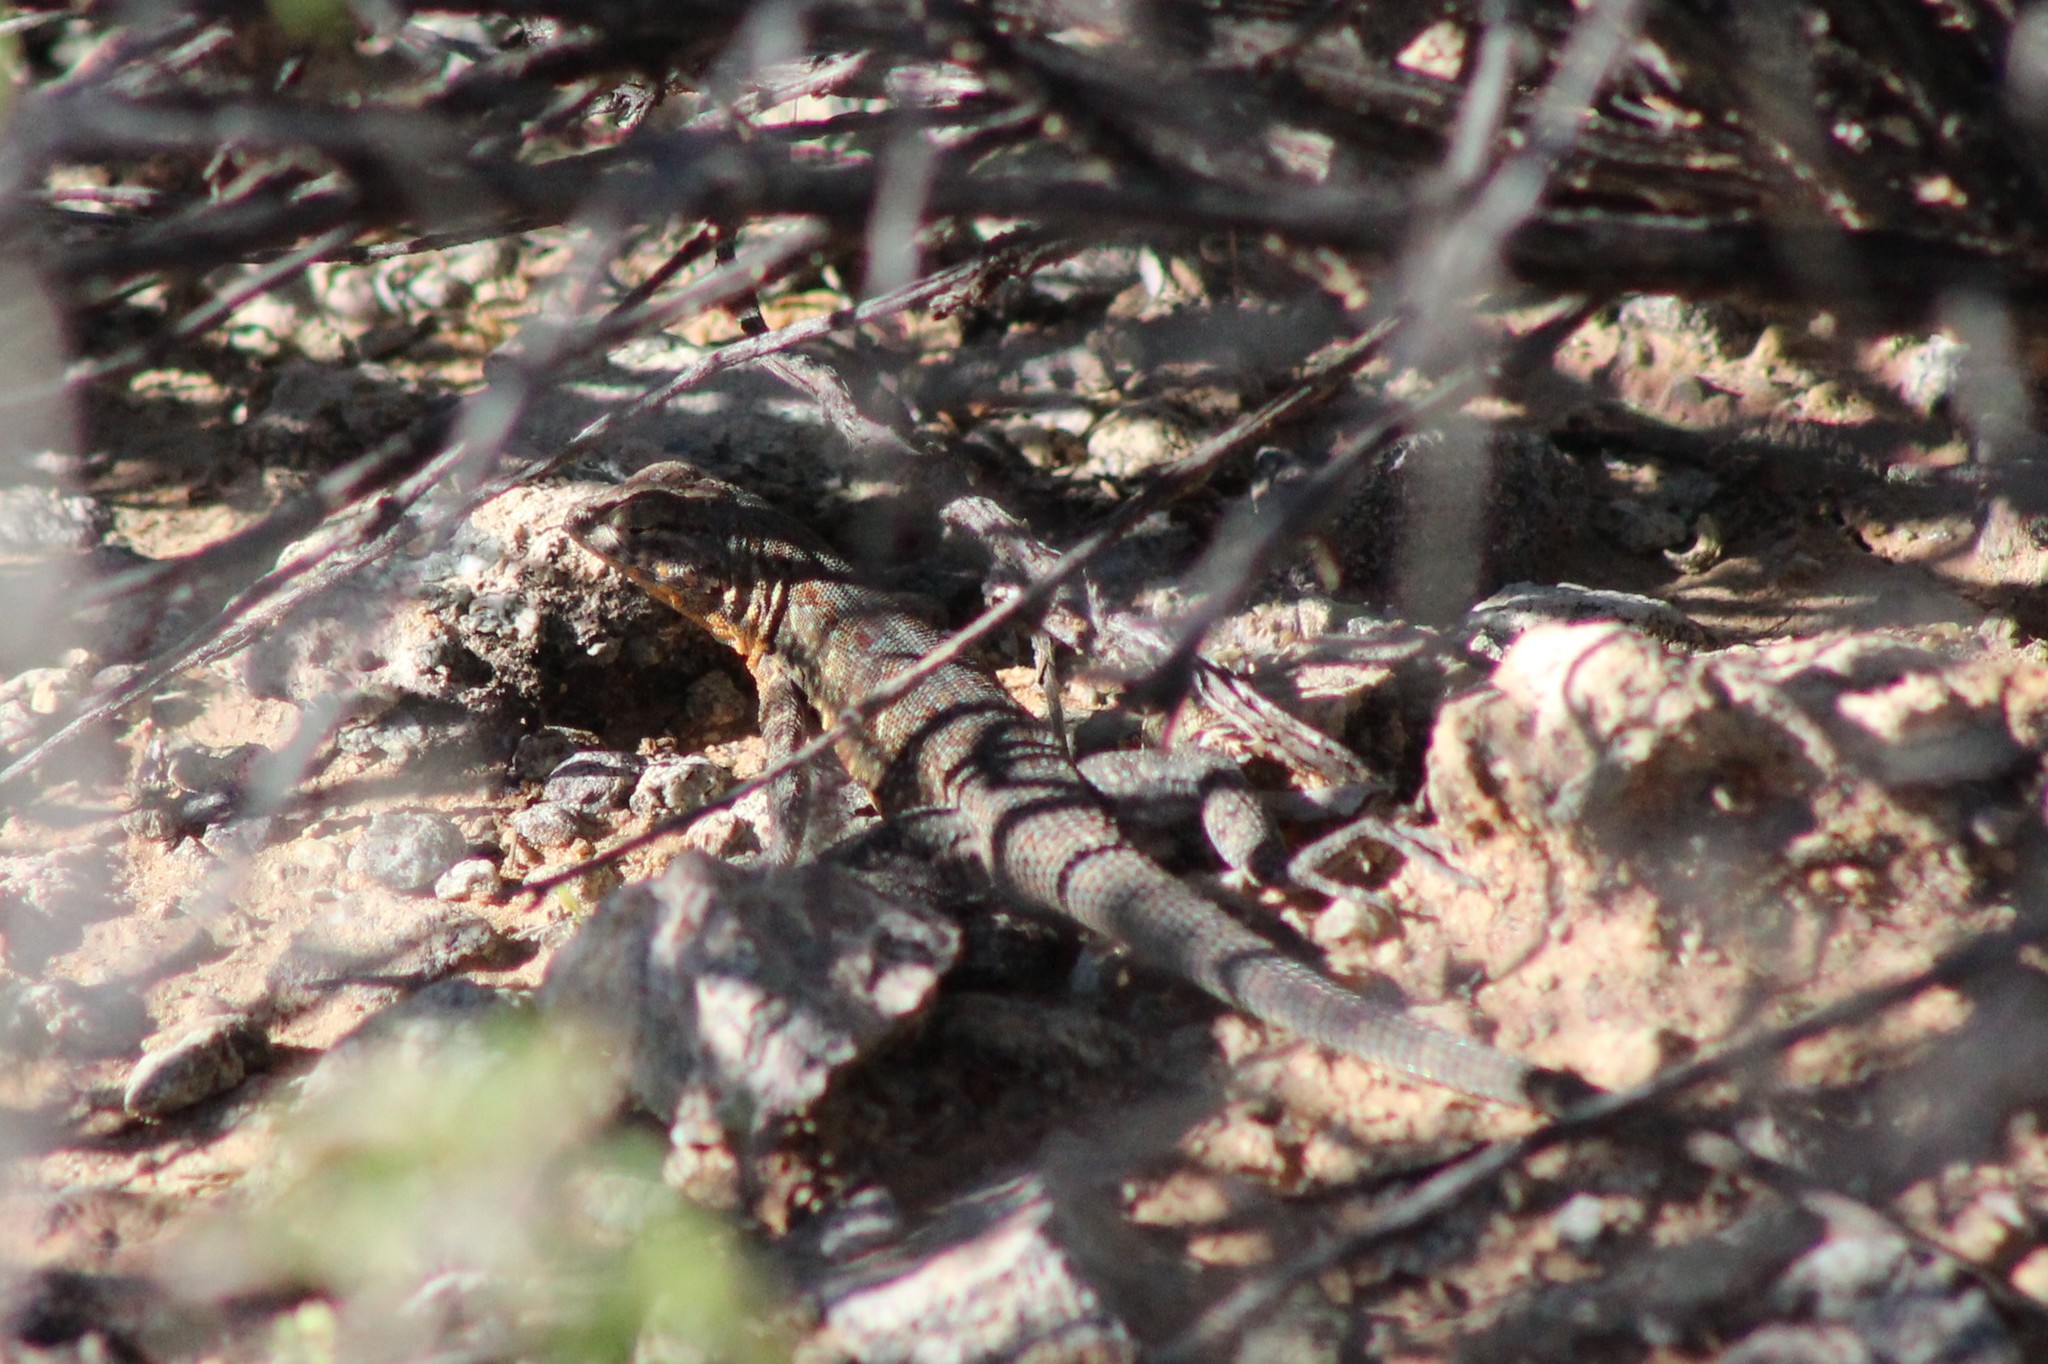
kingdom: Animalia
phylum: Chordata
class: Squamata
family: Phrynosomatidae
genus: Uta
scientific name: Uta stansburiana
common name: Side-blotched lizard
